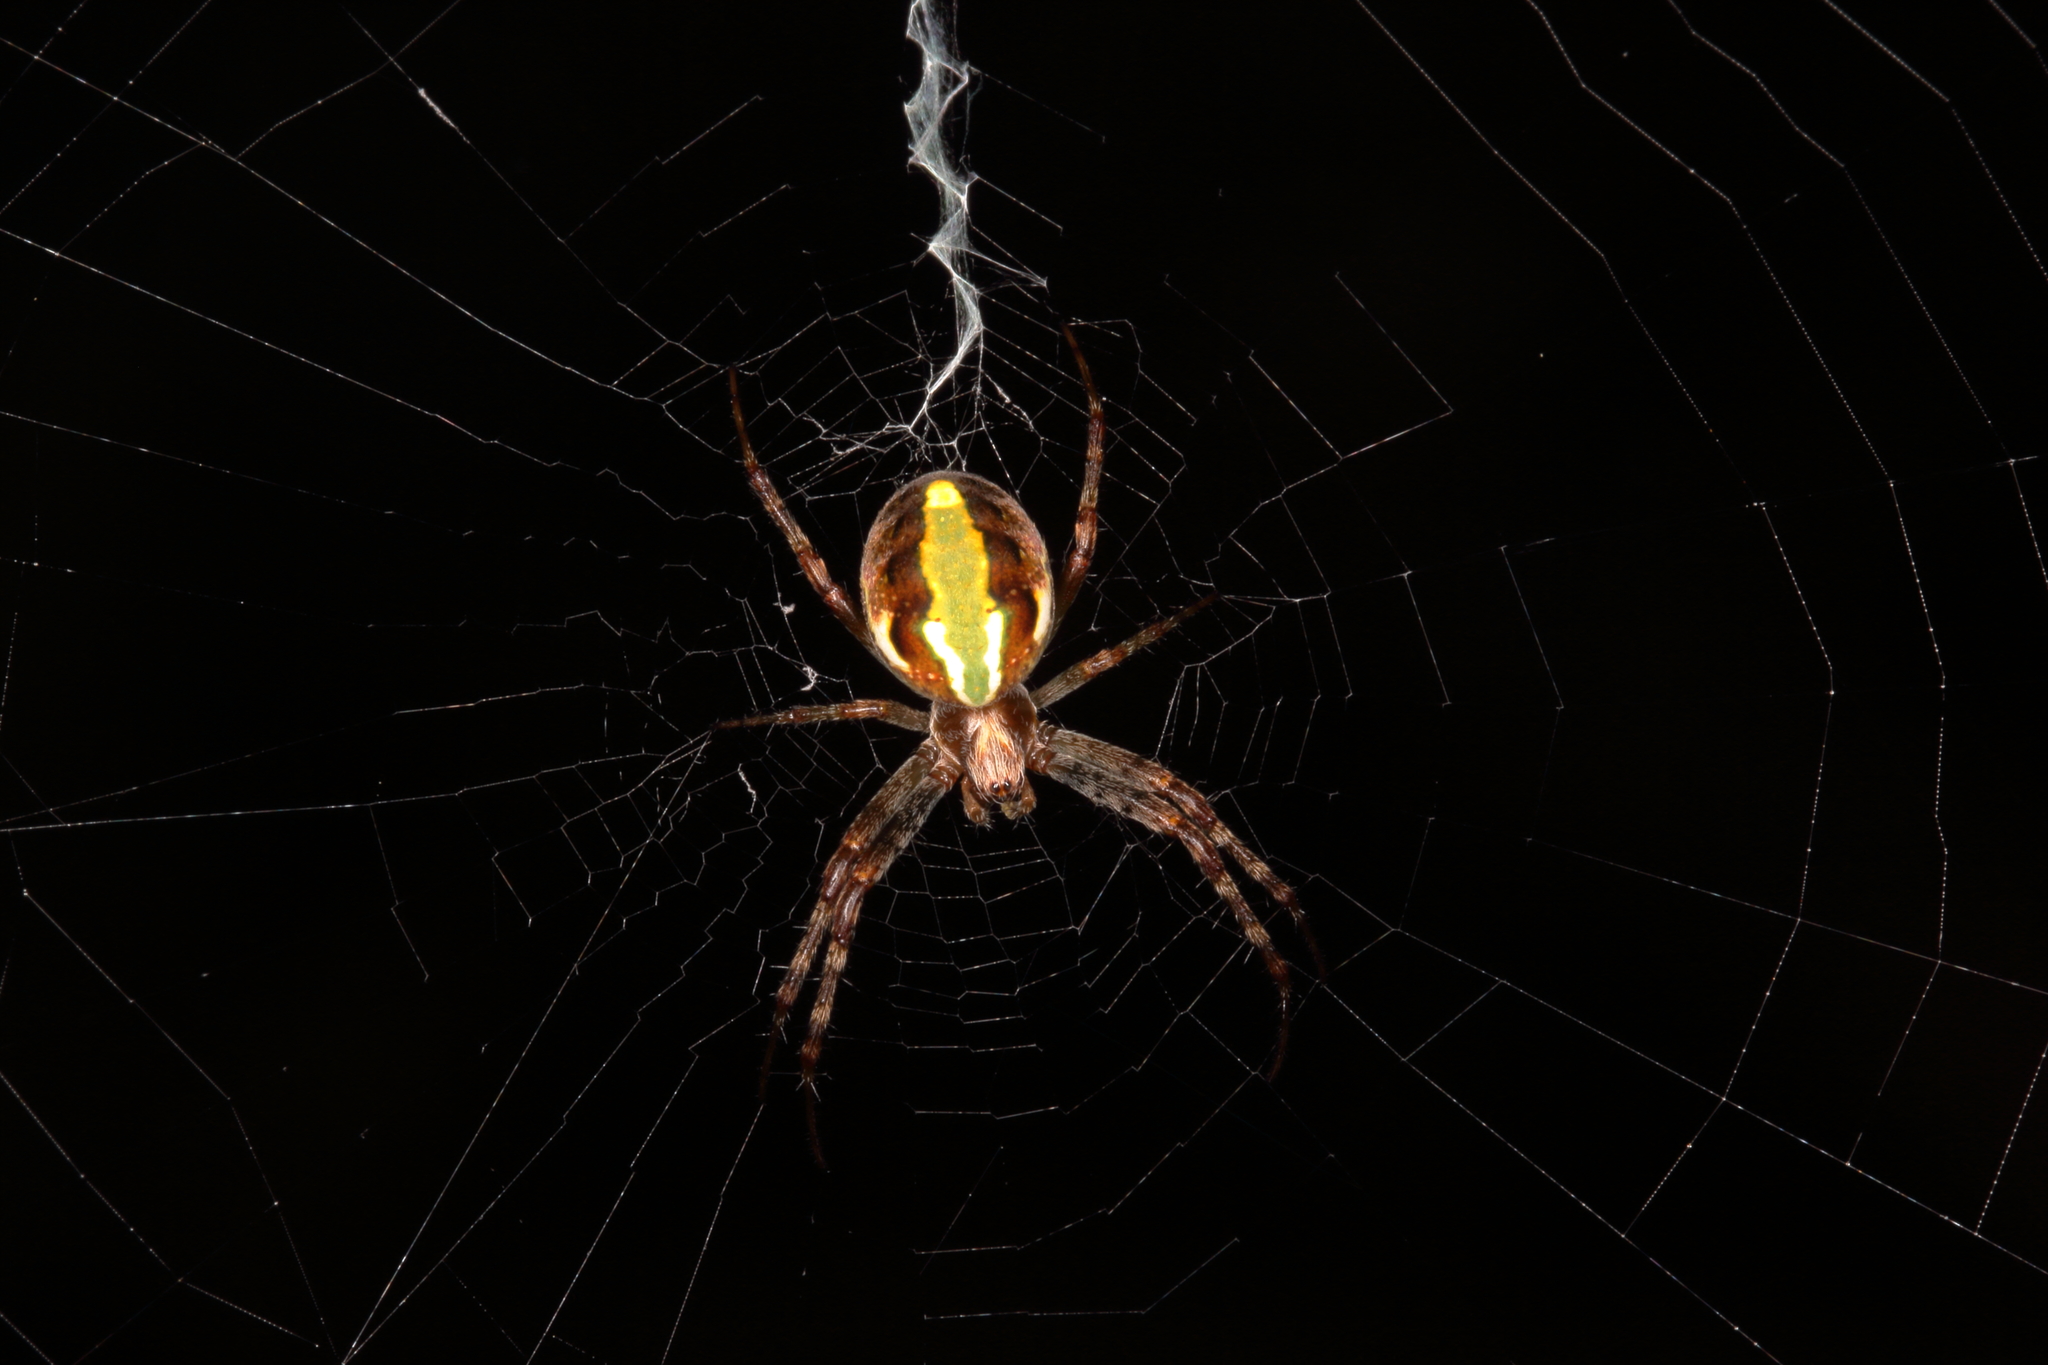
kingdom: Animalia
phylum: Arthropoda
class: Arachnida
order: Araneae
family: Araneidae
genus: Novaranea
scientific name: Novaranea queribunda
